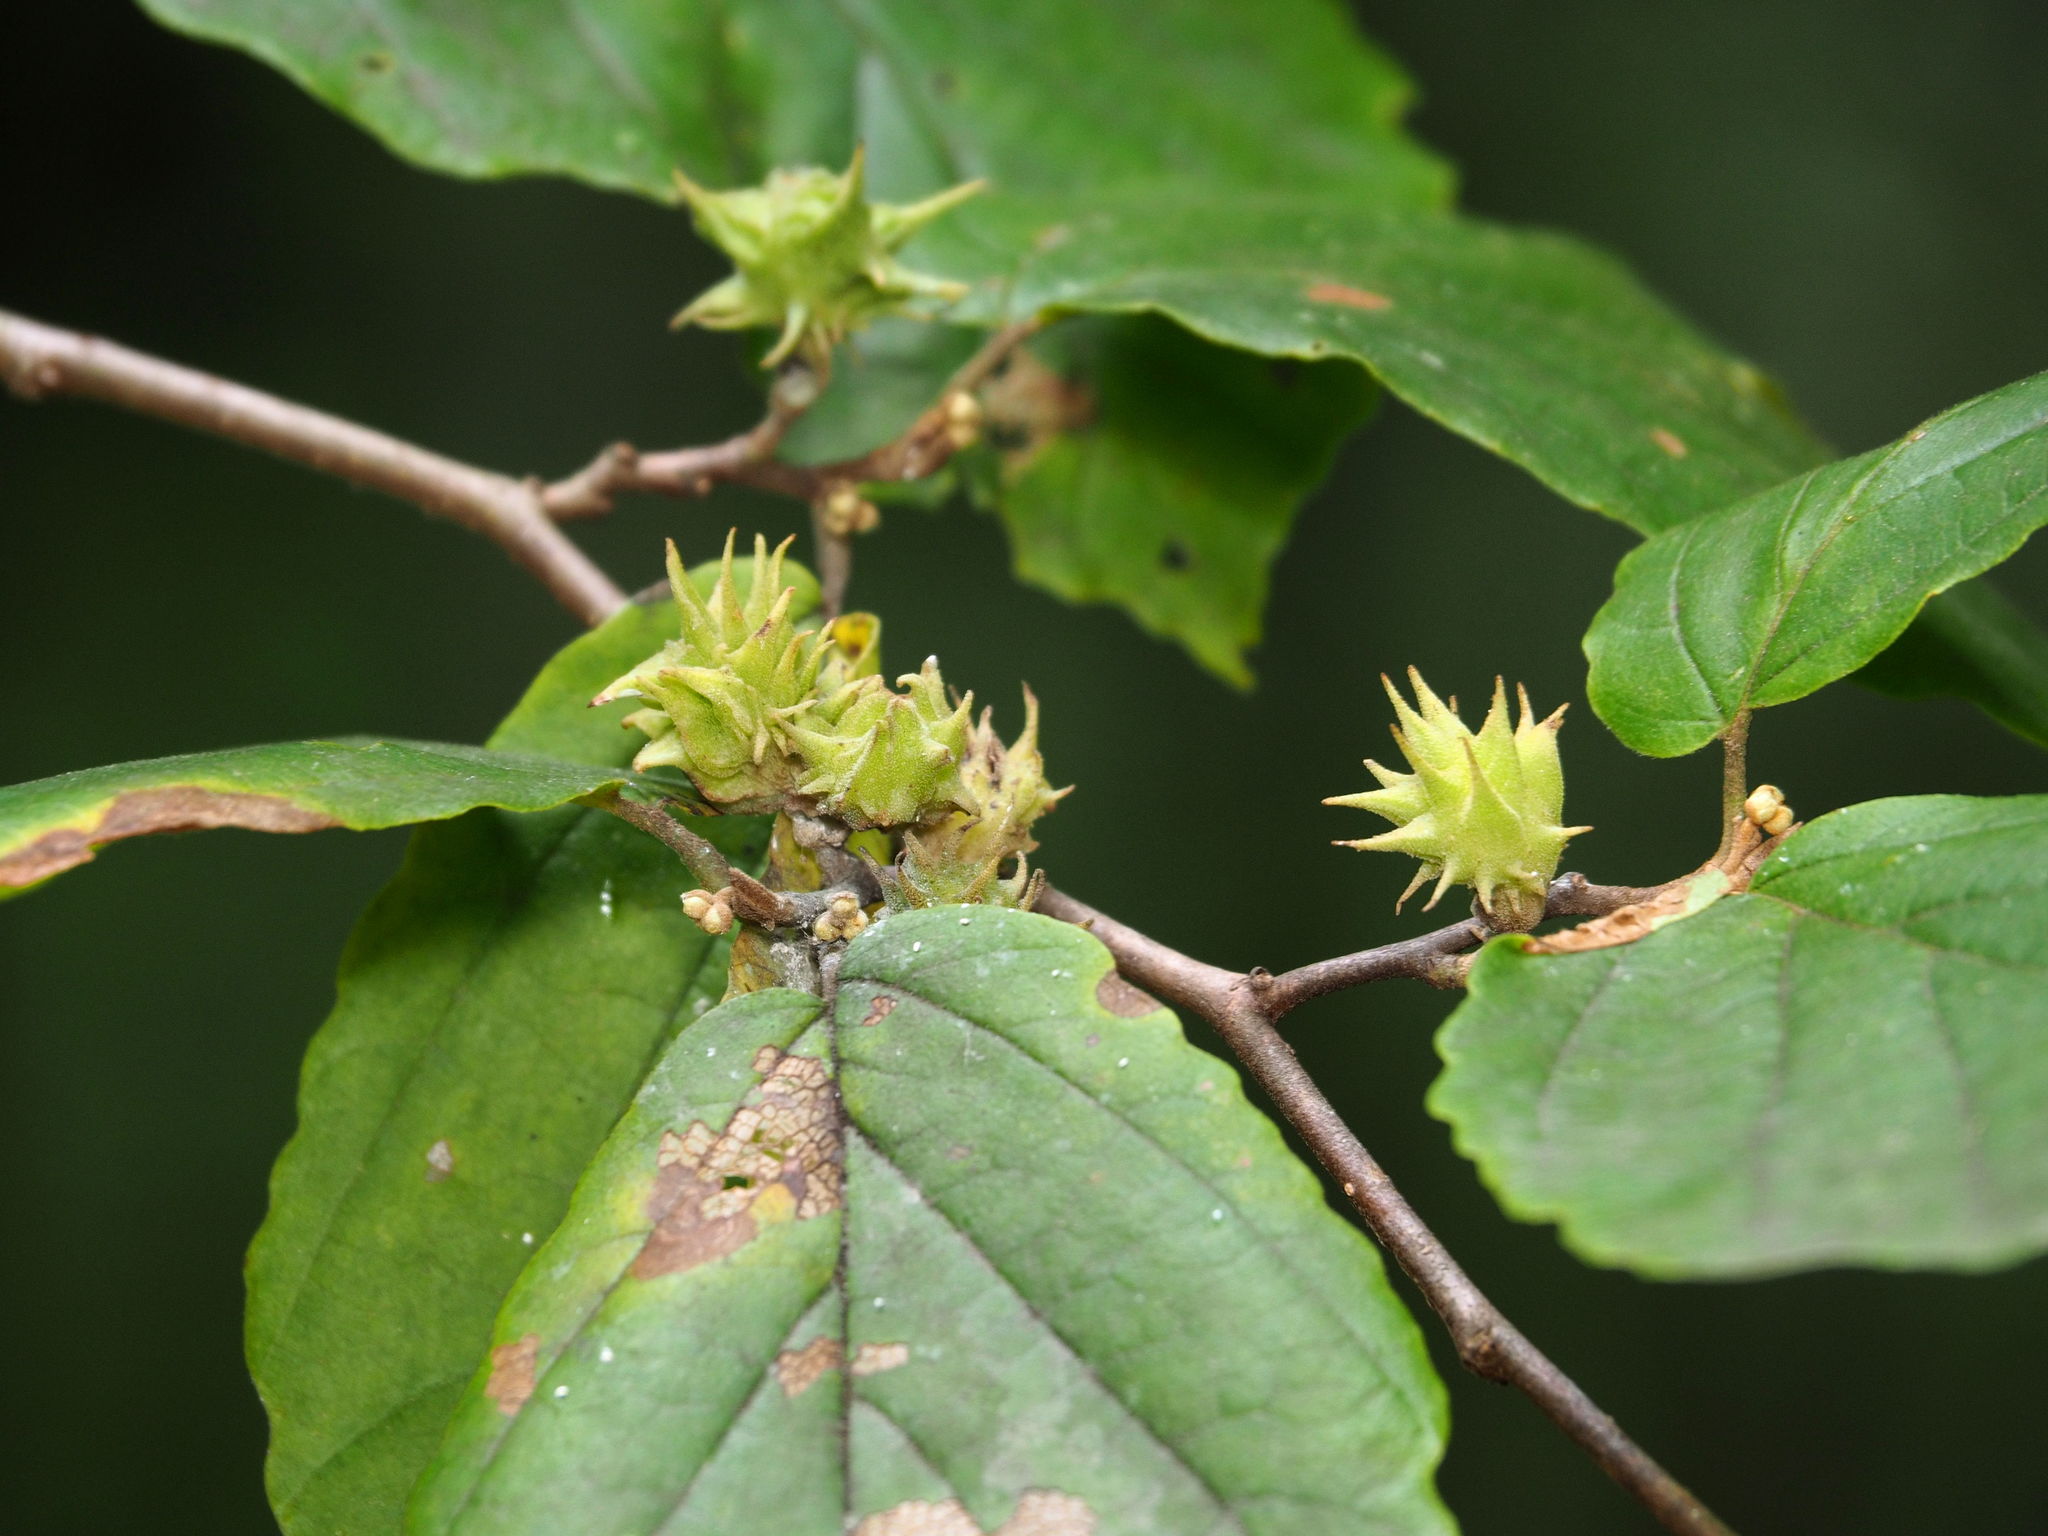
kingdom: Animalia
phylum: Arthropoda
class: Insecta
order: Hemiptera
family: Aphididae
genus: Hamamelistes
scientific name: Hamamelistes spinosus
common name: Witch hazel gall aphid
